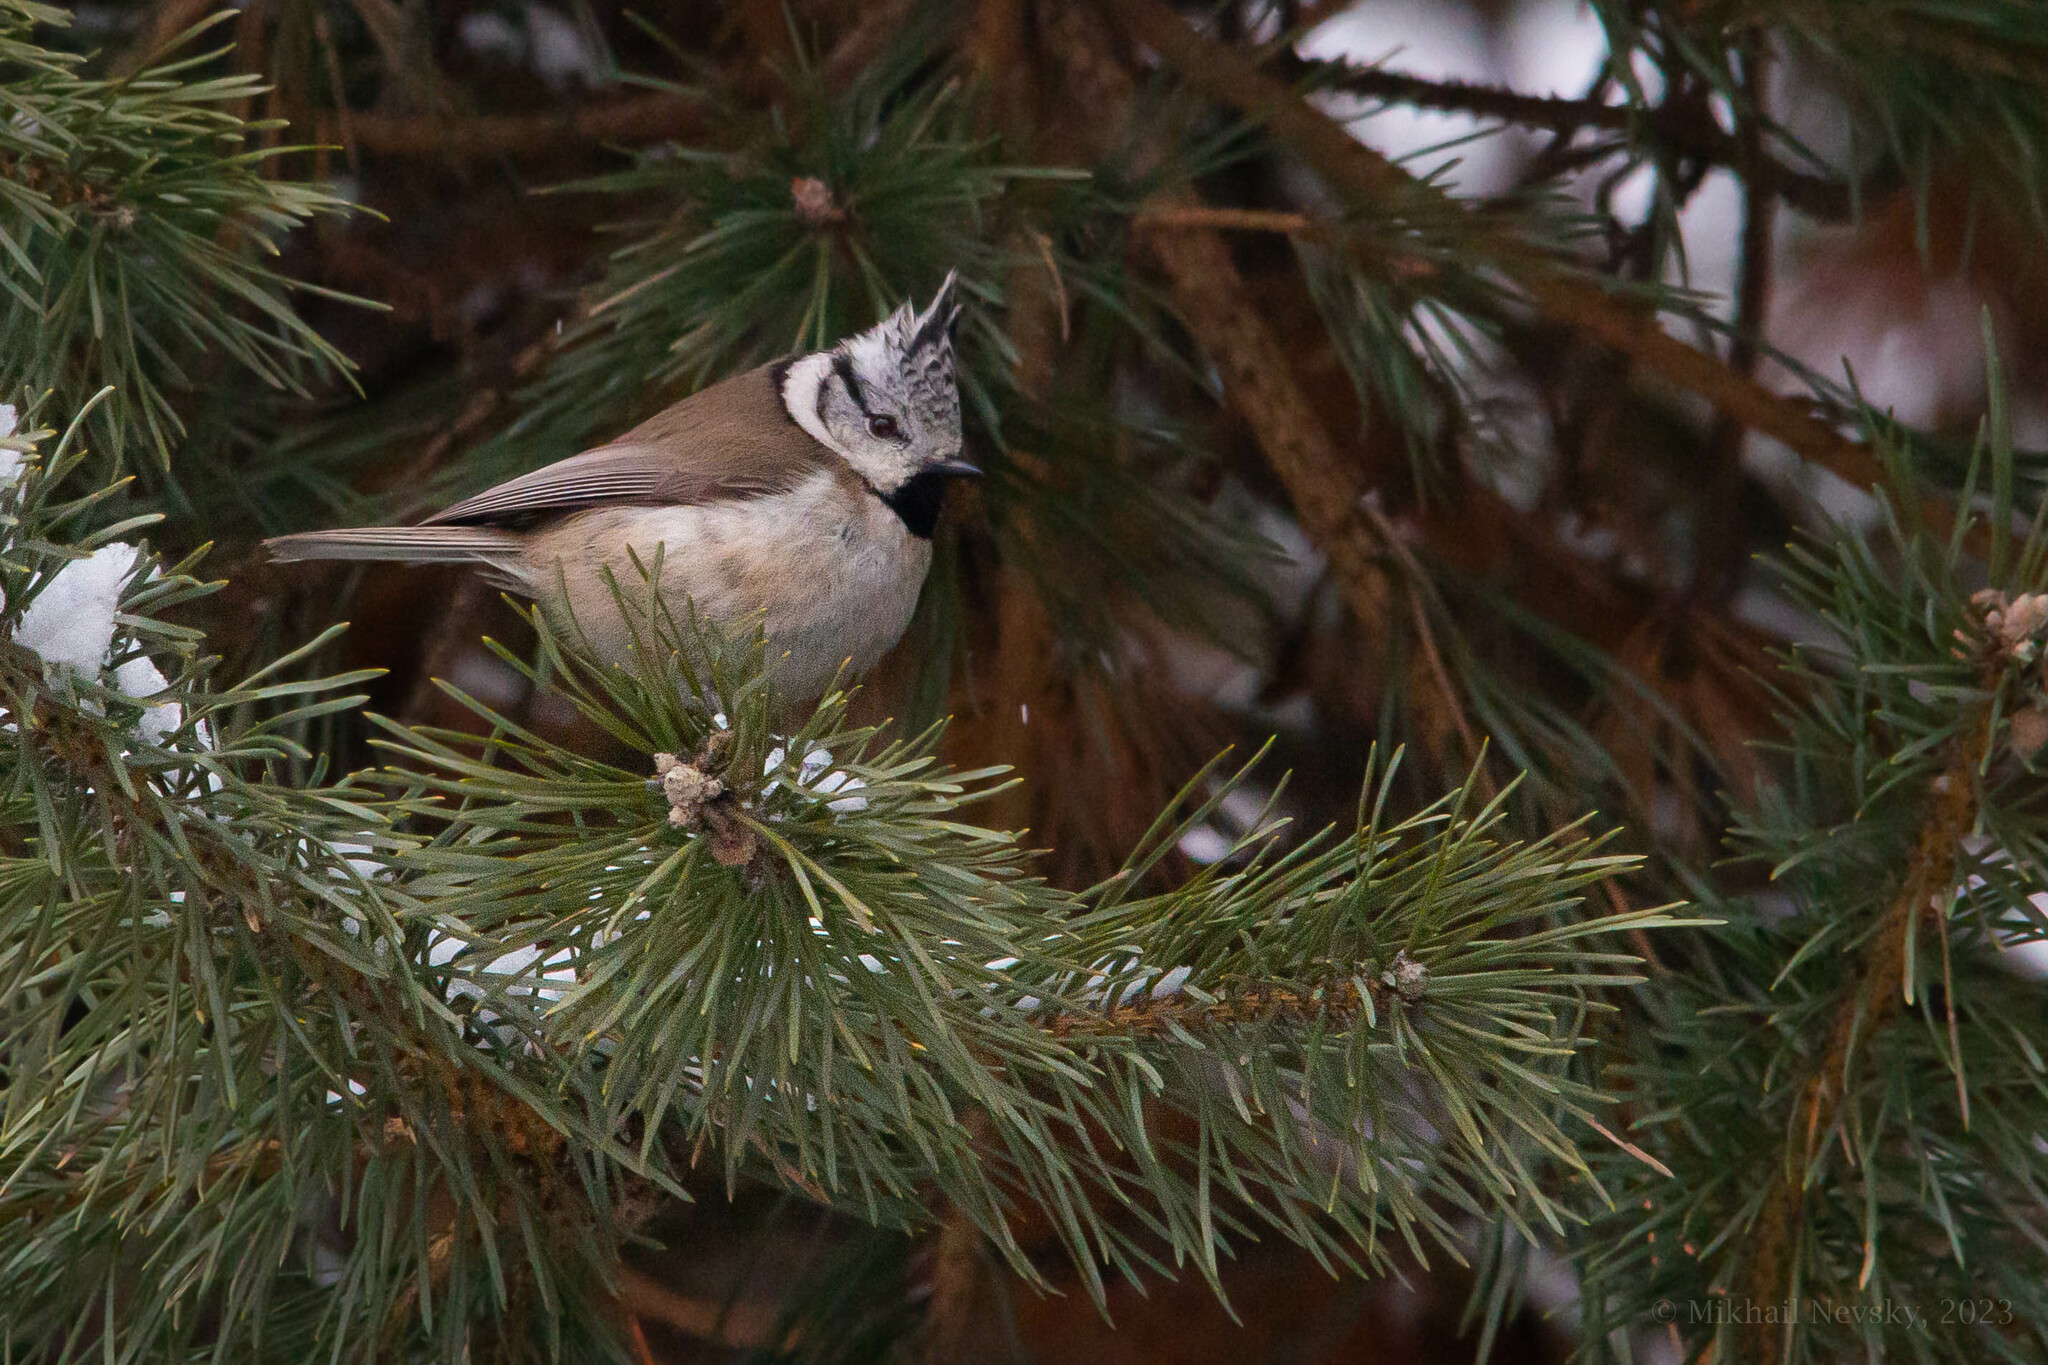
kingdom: Animalia
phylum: Chordata
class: Aves
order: Passeriformes
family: Paridae
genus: Lophophanes
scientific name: Lophophanes cristatus
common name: European crested tit
